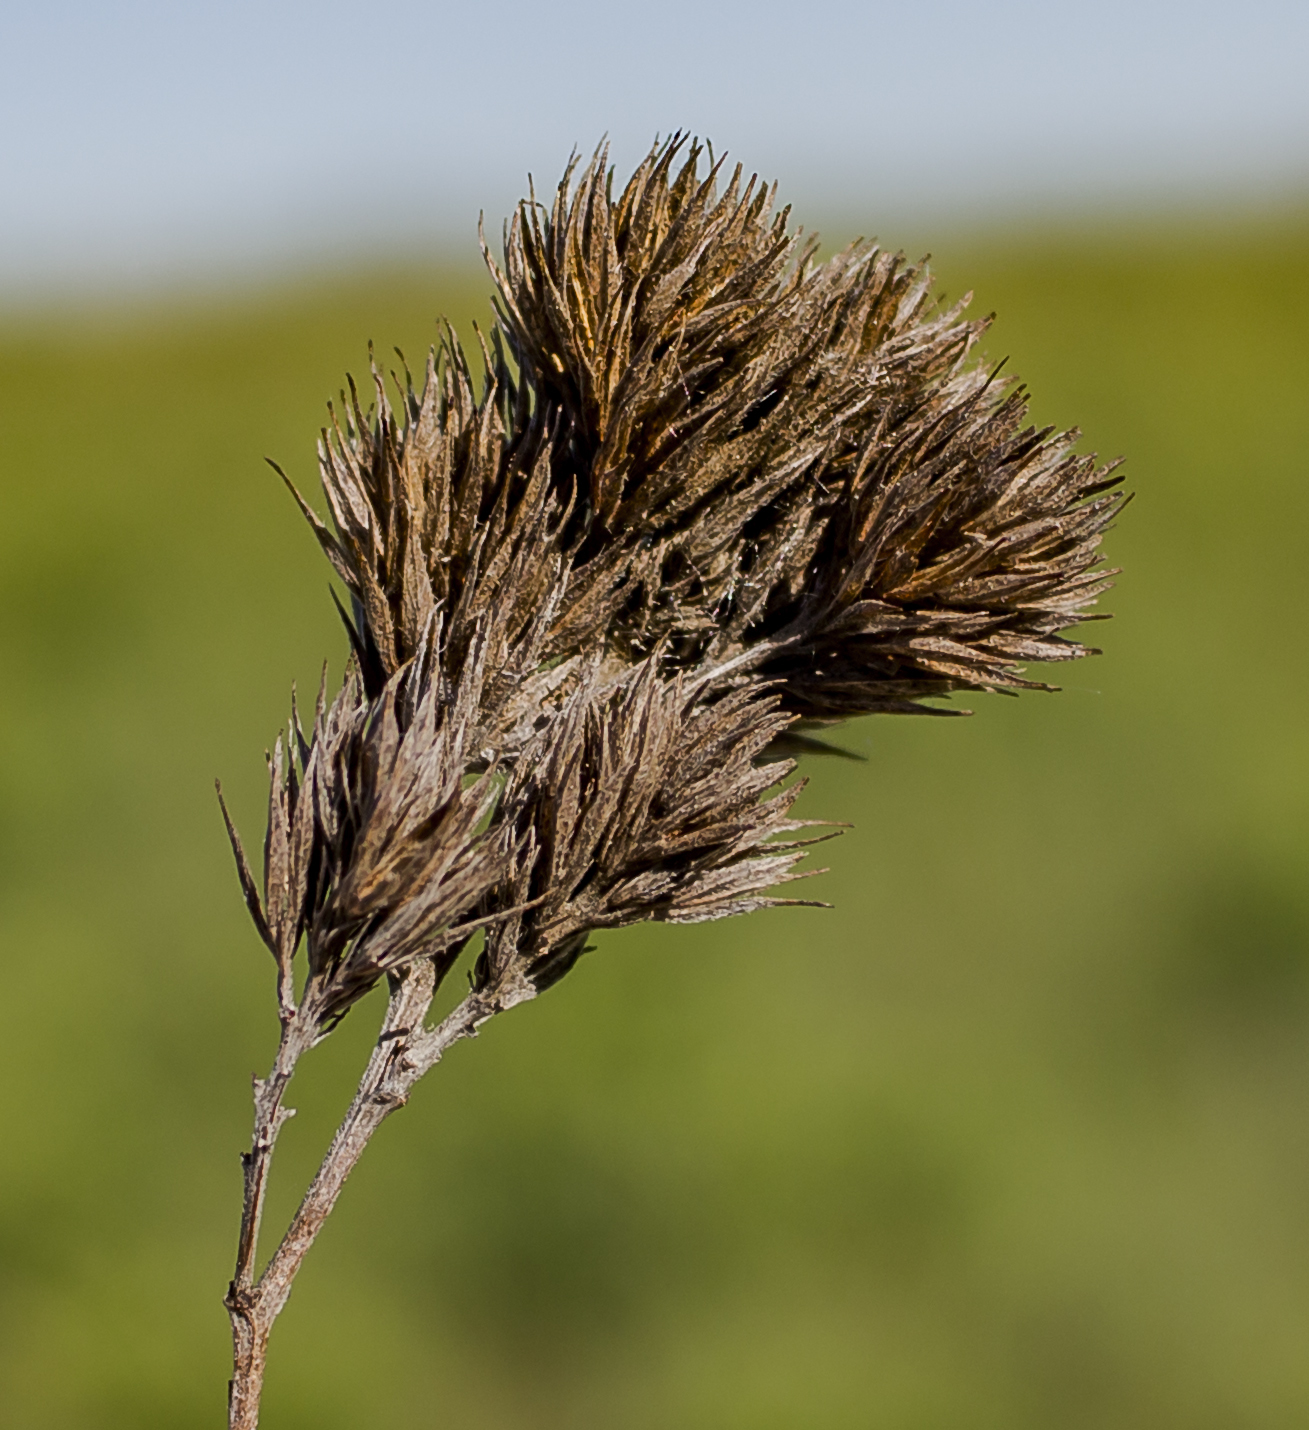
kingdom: Plantae
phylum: Tracheophyta
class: Magnoliopsida
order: Fabales
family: Fabaceae
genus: Lespedeza
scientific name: Lespedeza capitata
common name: Dusty clover
